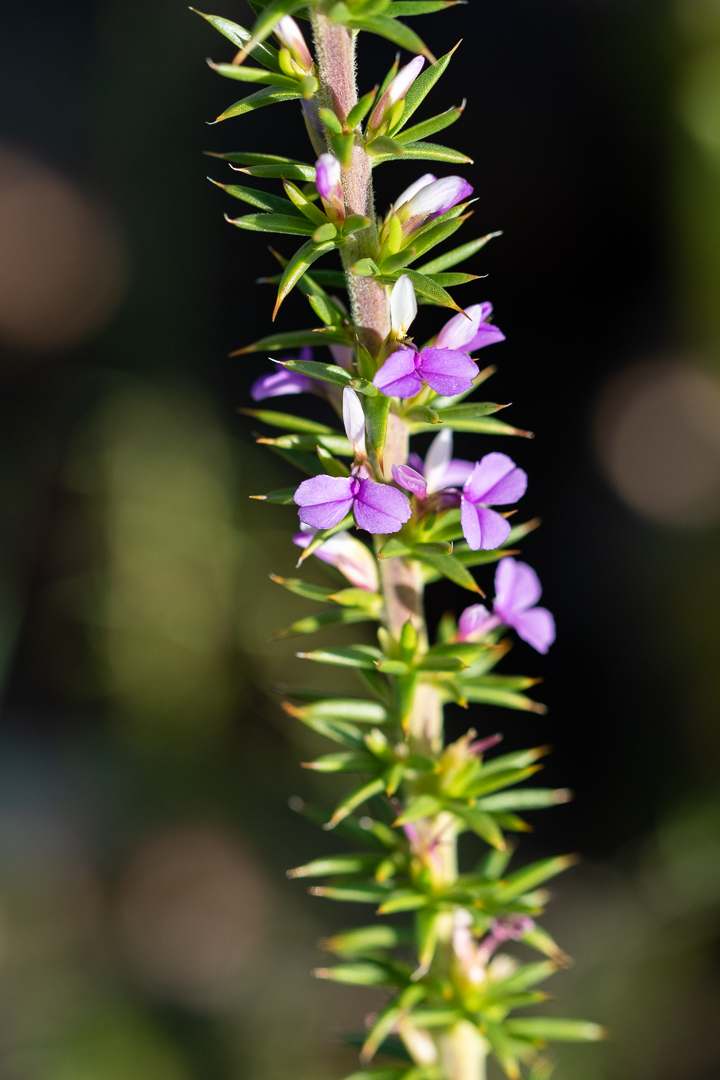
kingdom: Plantae
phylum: Tracheophyta
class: Magnoliopsida
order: Fabales
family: Polygalaceae
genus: Muraltia
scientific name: Muraltia heisteria
